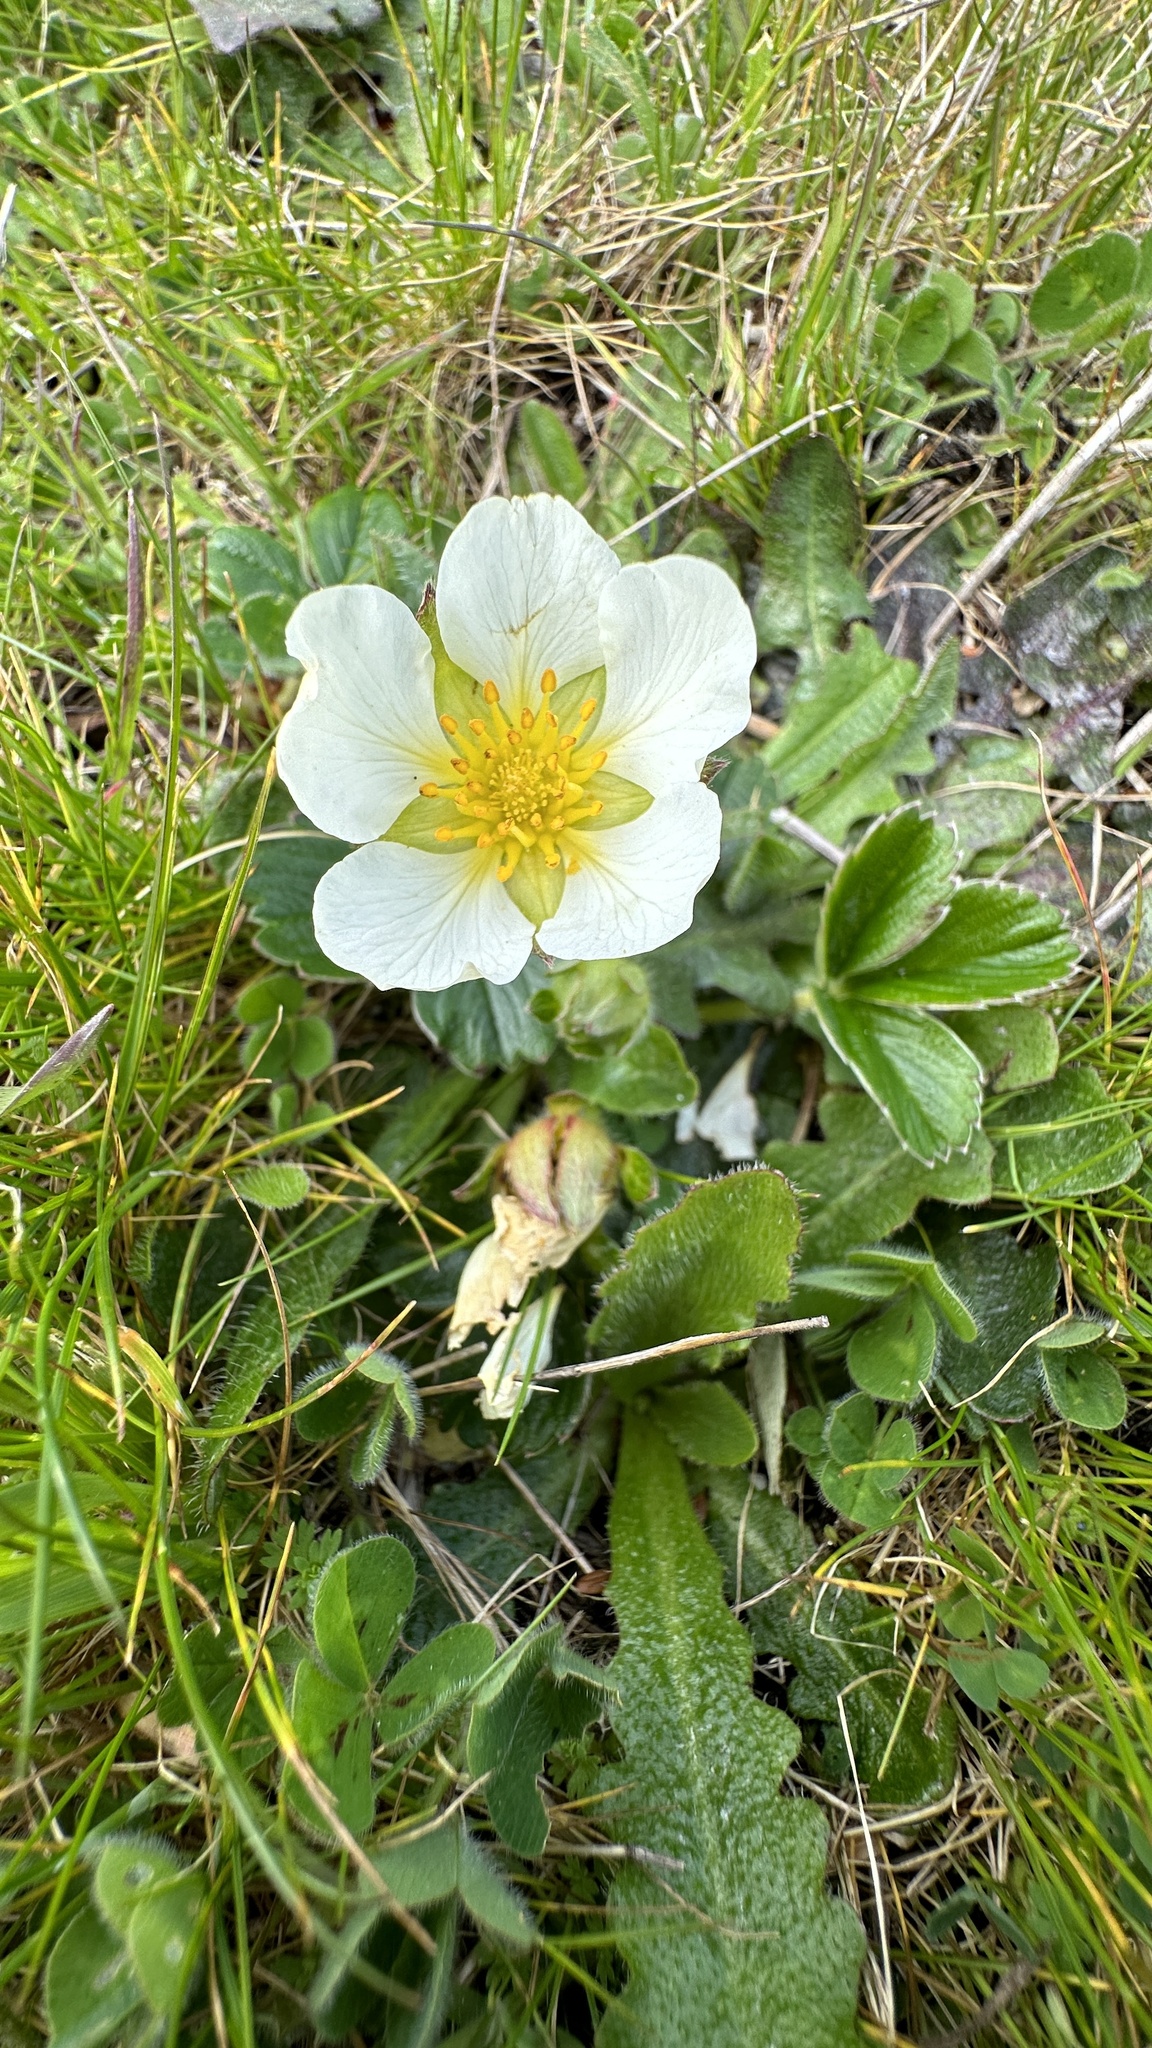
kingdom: Plantae
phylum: Tracheophyta
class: Magnoliopsida
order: Rosales
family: Rosaceae
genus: Fragaria
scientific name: Fragaria chiloensis
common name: Beach strawberry
